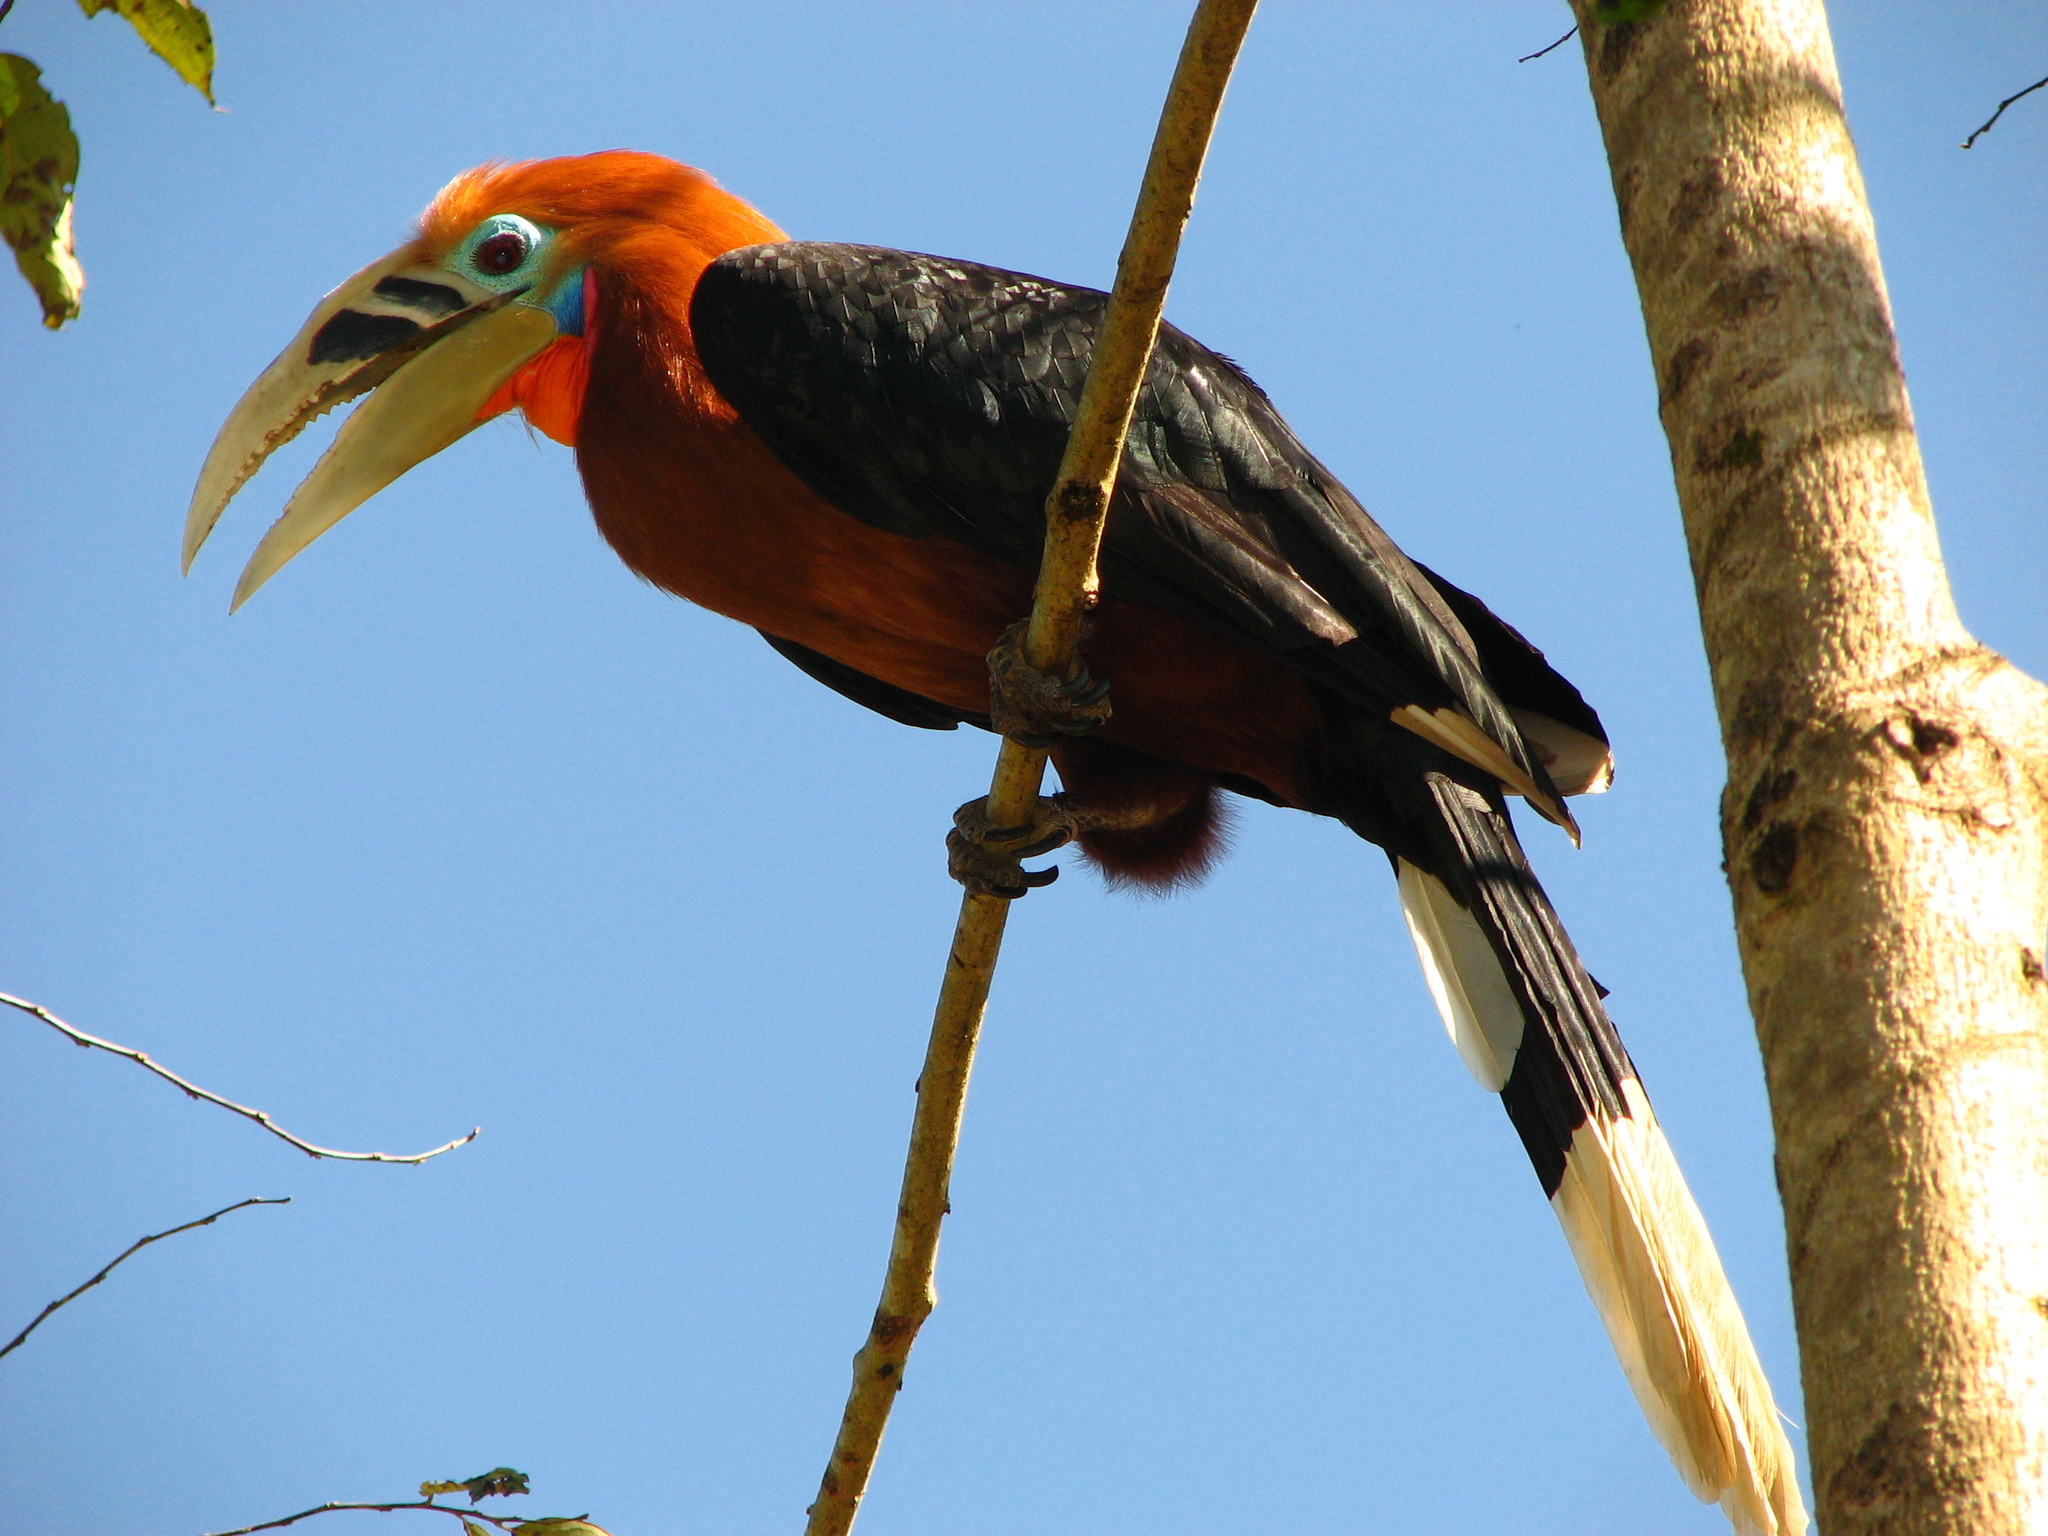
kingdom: Animalia
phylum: Chordata
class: Aves
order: Bucerotiformes
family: Bucerotidae
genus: Aceros
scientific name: Aceros nipalensis
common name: Rufous-necked hornbill
